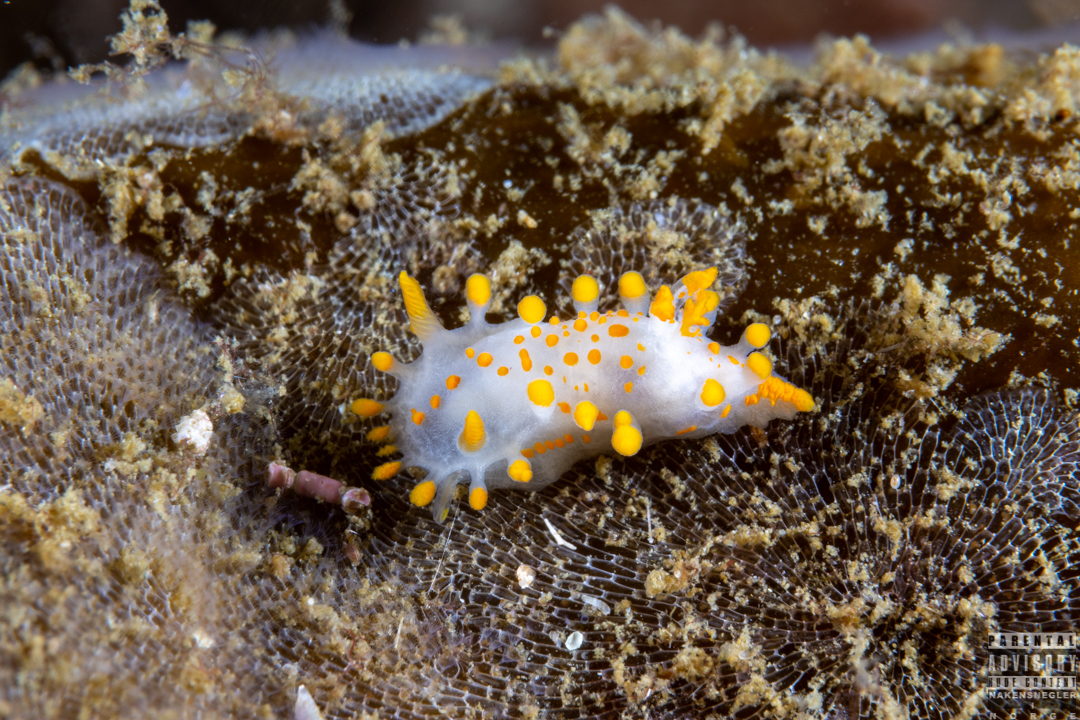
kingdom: Animalia
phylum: Mollusca
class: Gastropoda
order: Nudibranchia
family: Polyceridae
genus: Limacia
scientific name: Limacia clavigera
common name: Orange-clubbed sea slug
